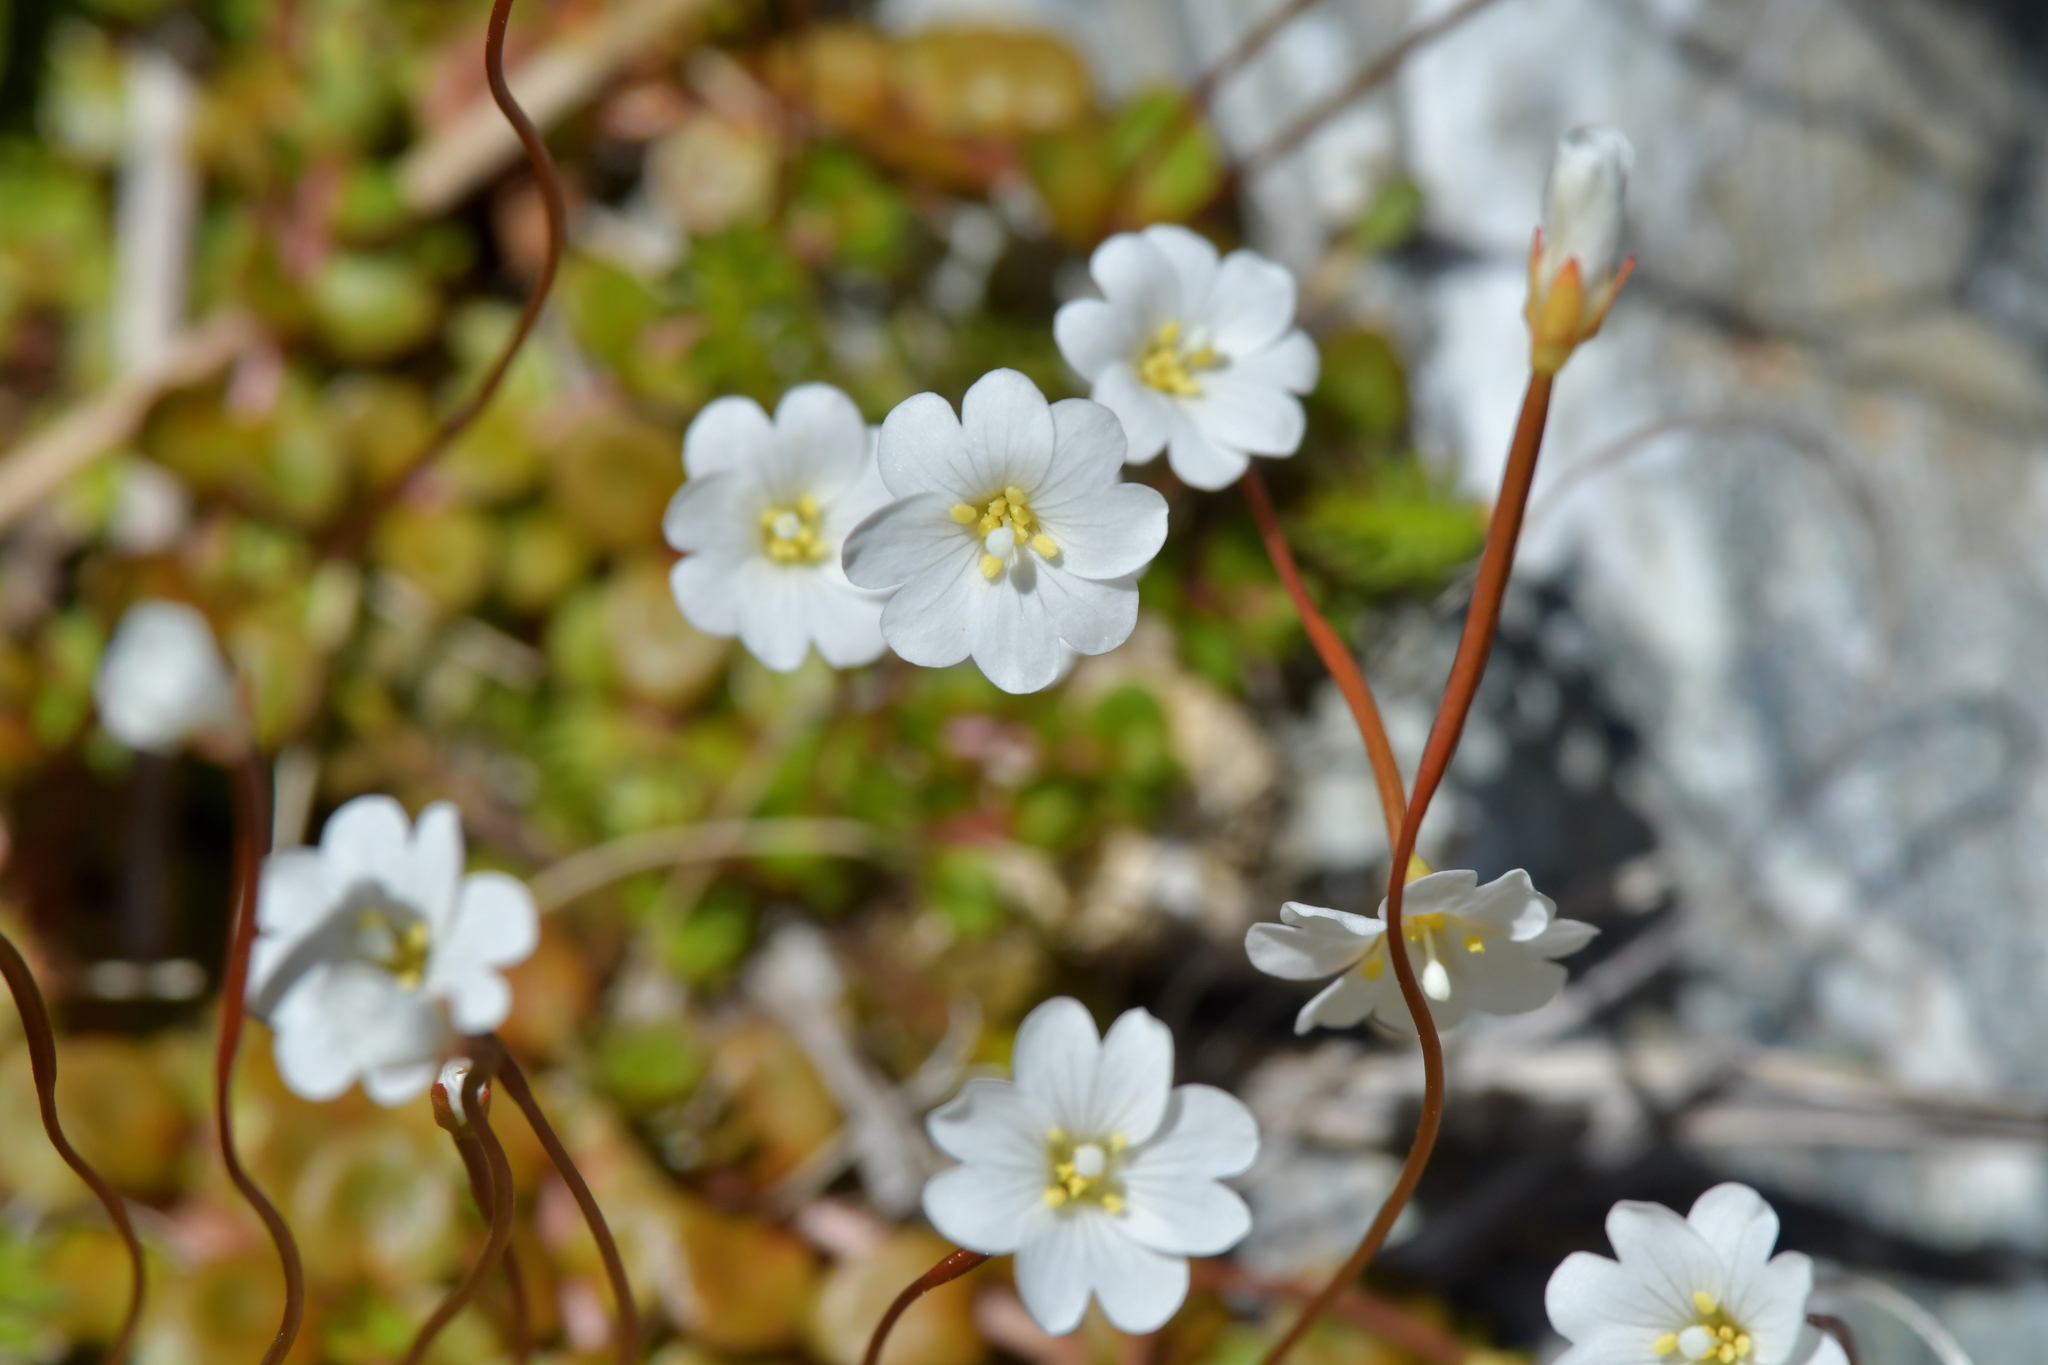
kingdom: Plantae
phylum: Tracheophyta
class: Magnoliopsida
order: Myrtales
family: Onagraceae
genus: Epilobium
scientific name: Epilobium brunnescens
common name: New zealand willowherb
